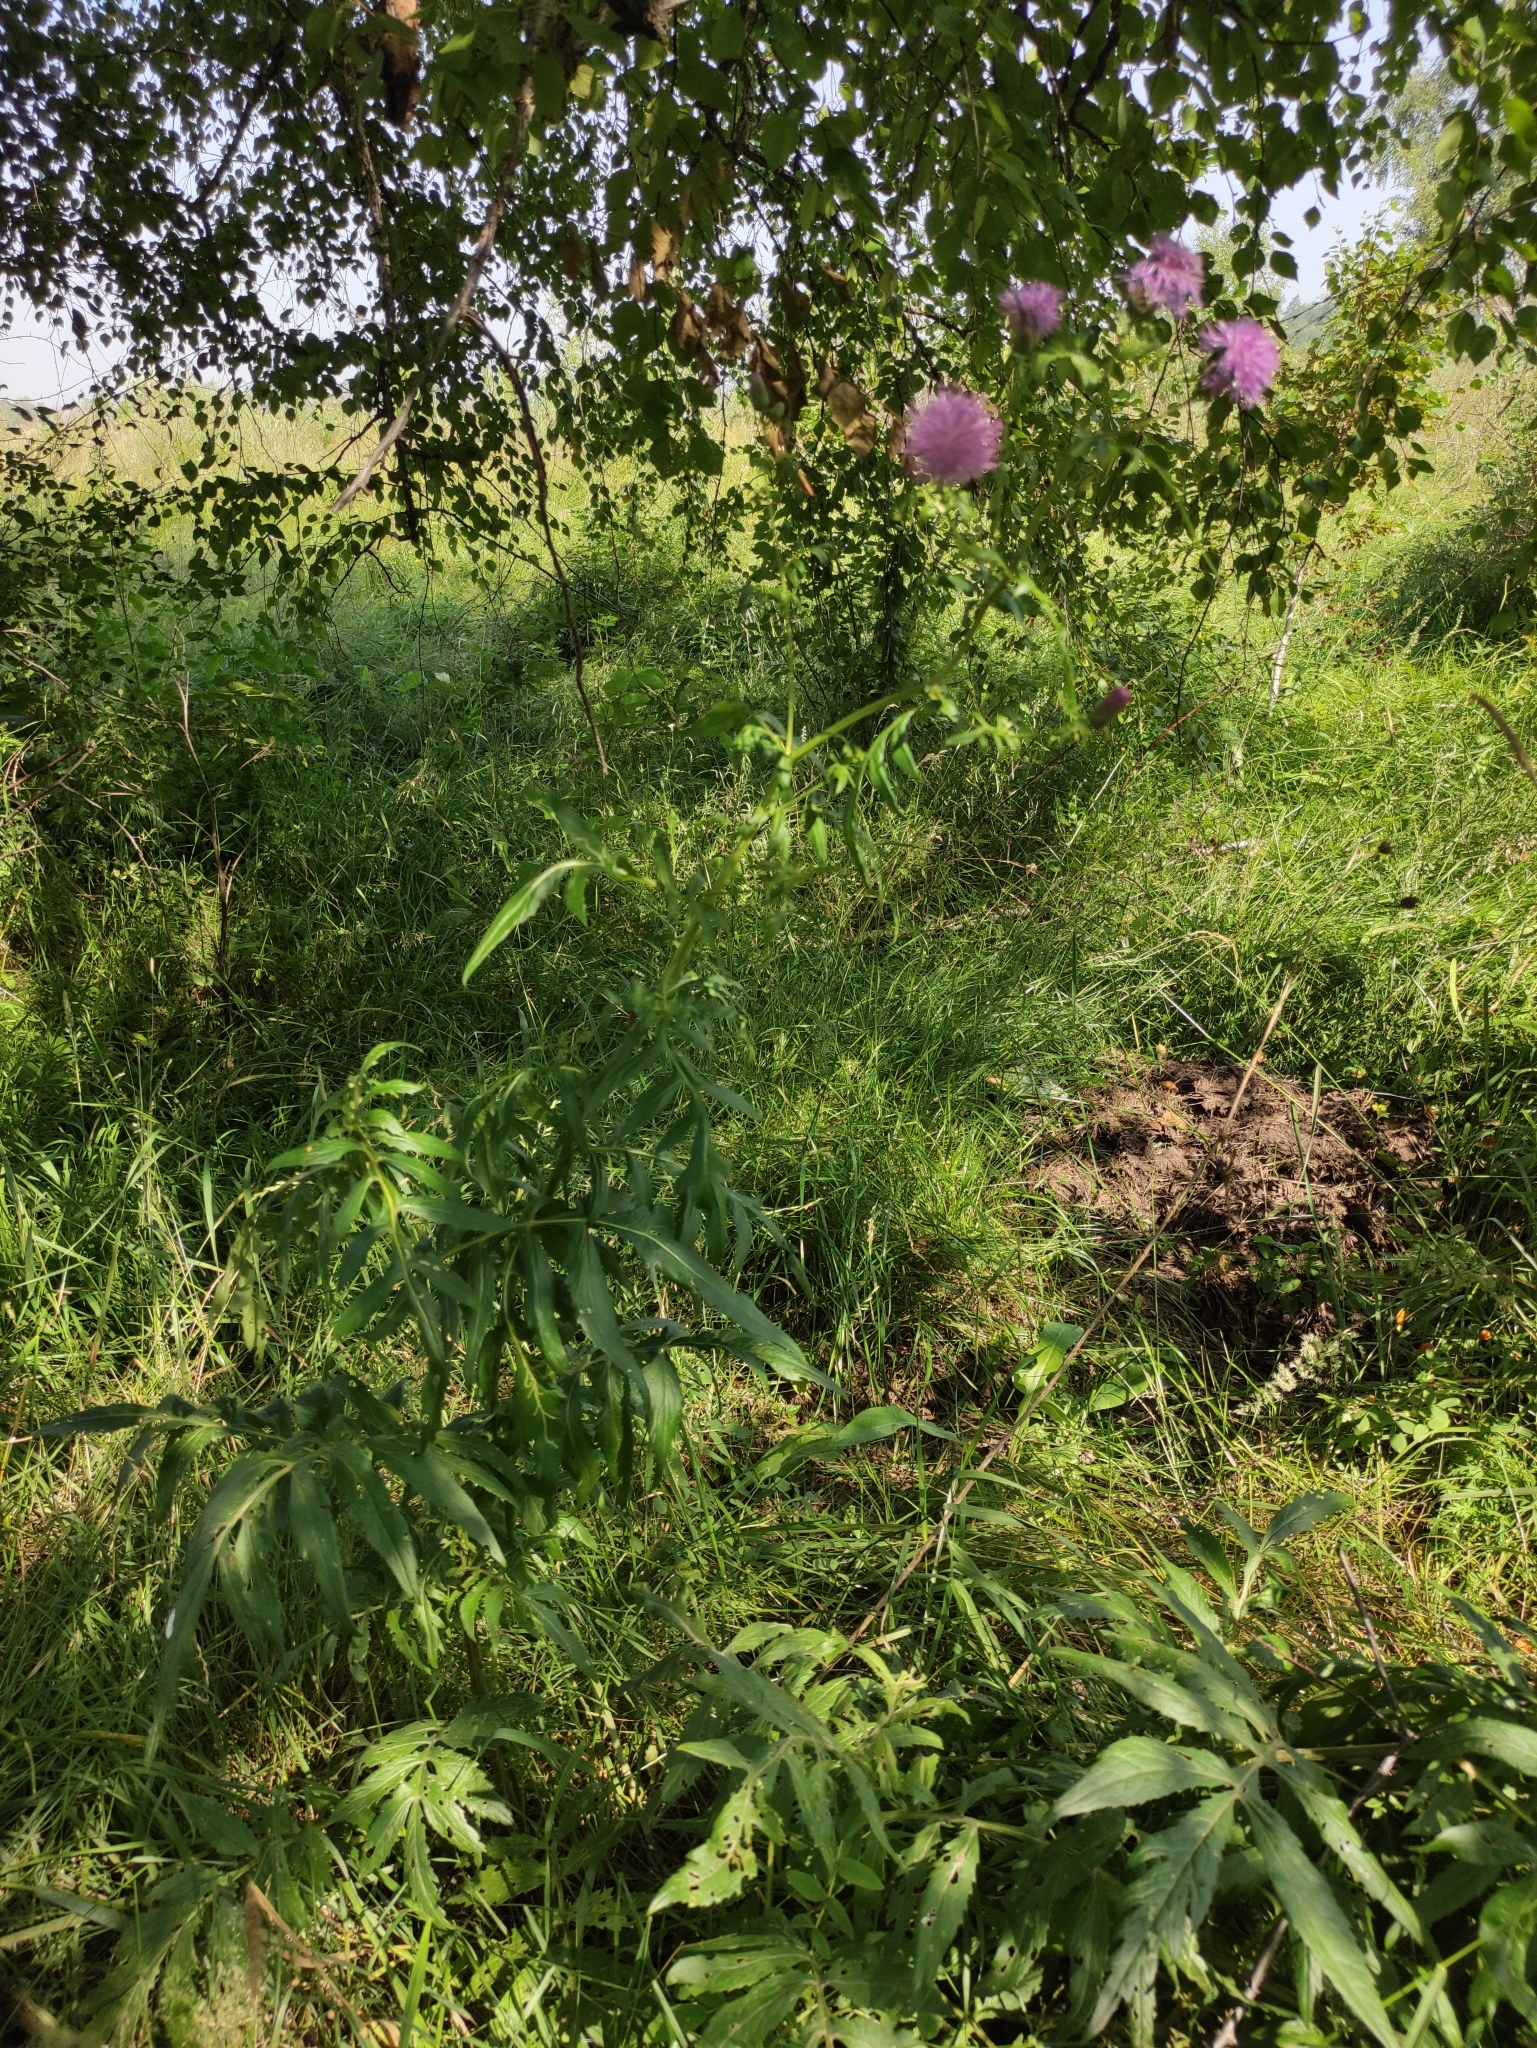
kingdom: Plantae
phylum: Tracheophyta
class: Magnoliopsida
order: Asterales
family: Asteraceae
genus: Serratula
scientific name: Serratula coronata
